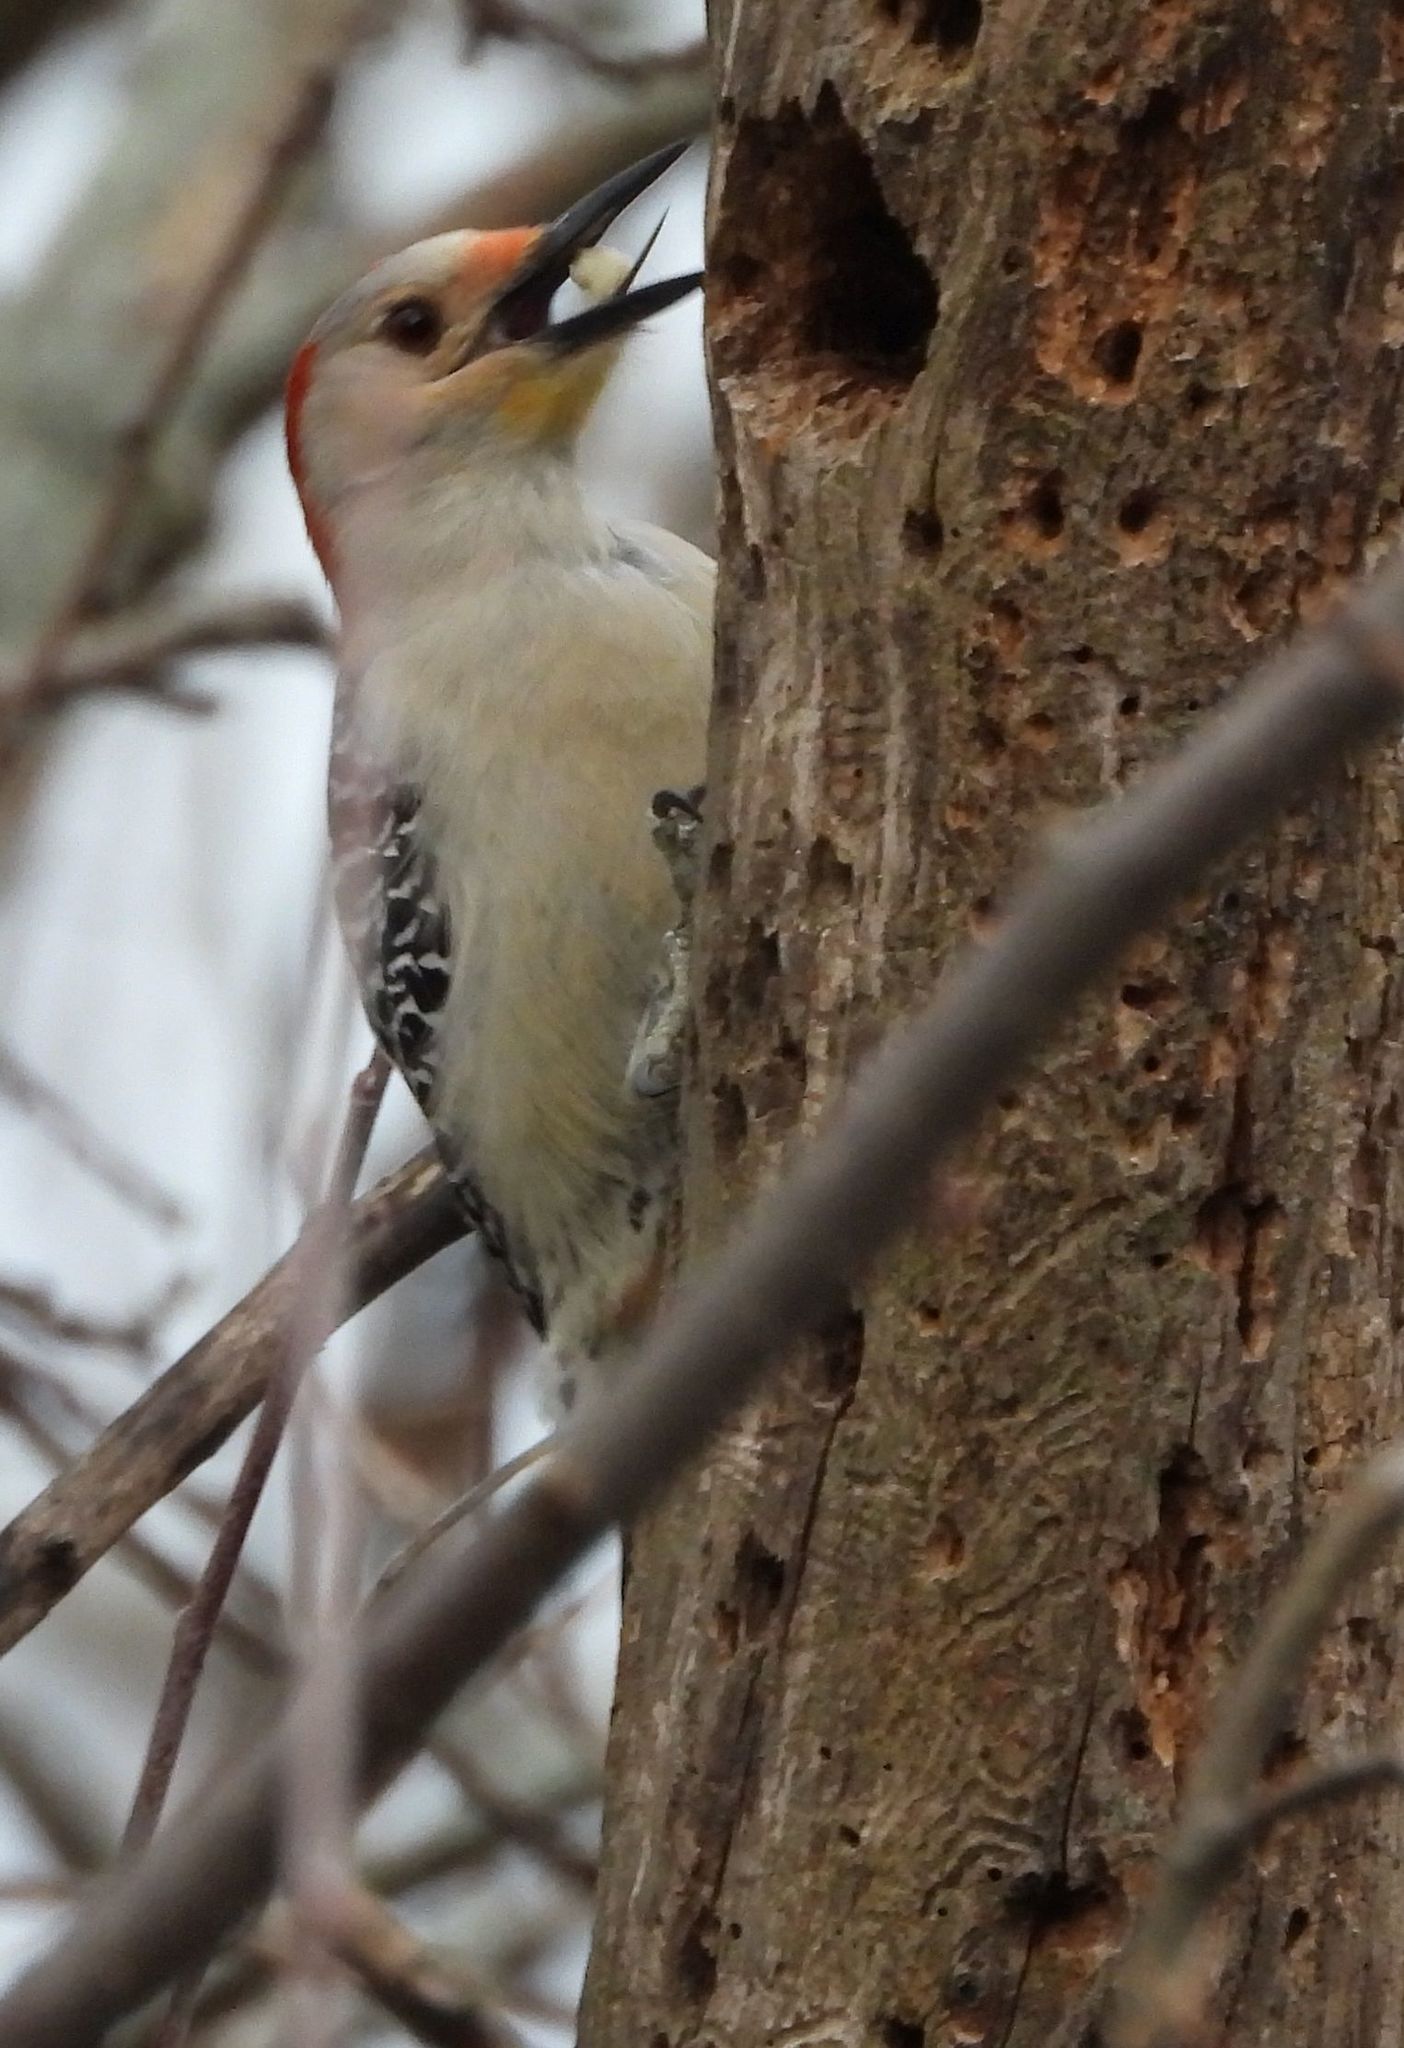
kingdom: Animalia
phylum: Chordata
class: Aves
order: Piciformes
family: Picidae
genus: Melanerpes
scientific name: Melanerpes carolinus
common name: Red-bellied woodpecker
